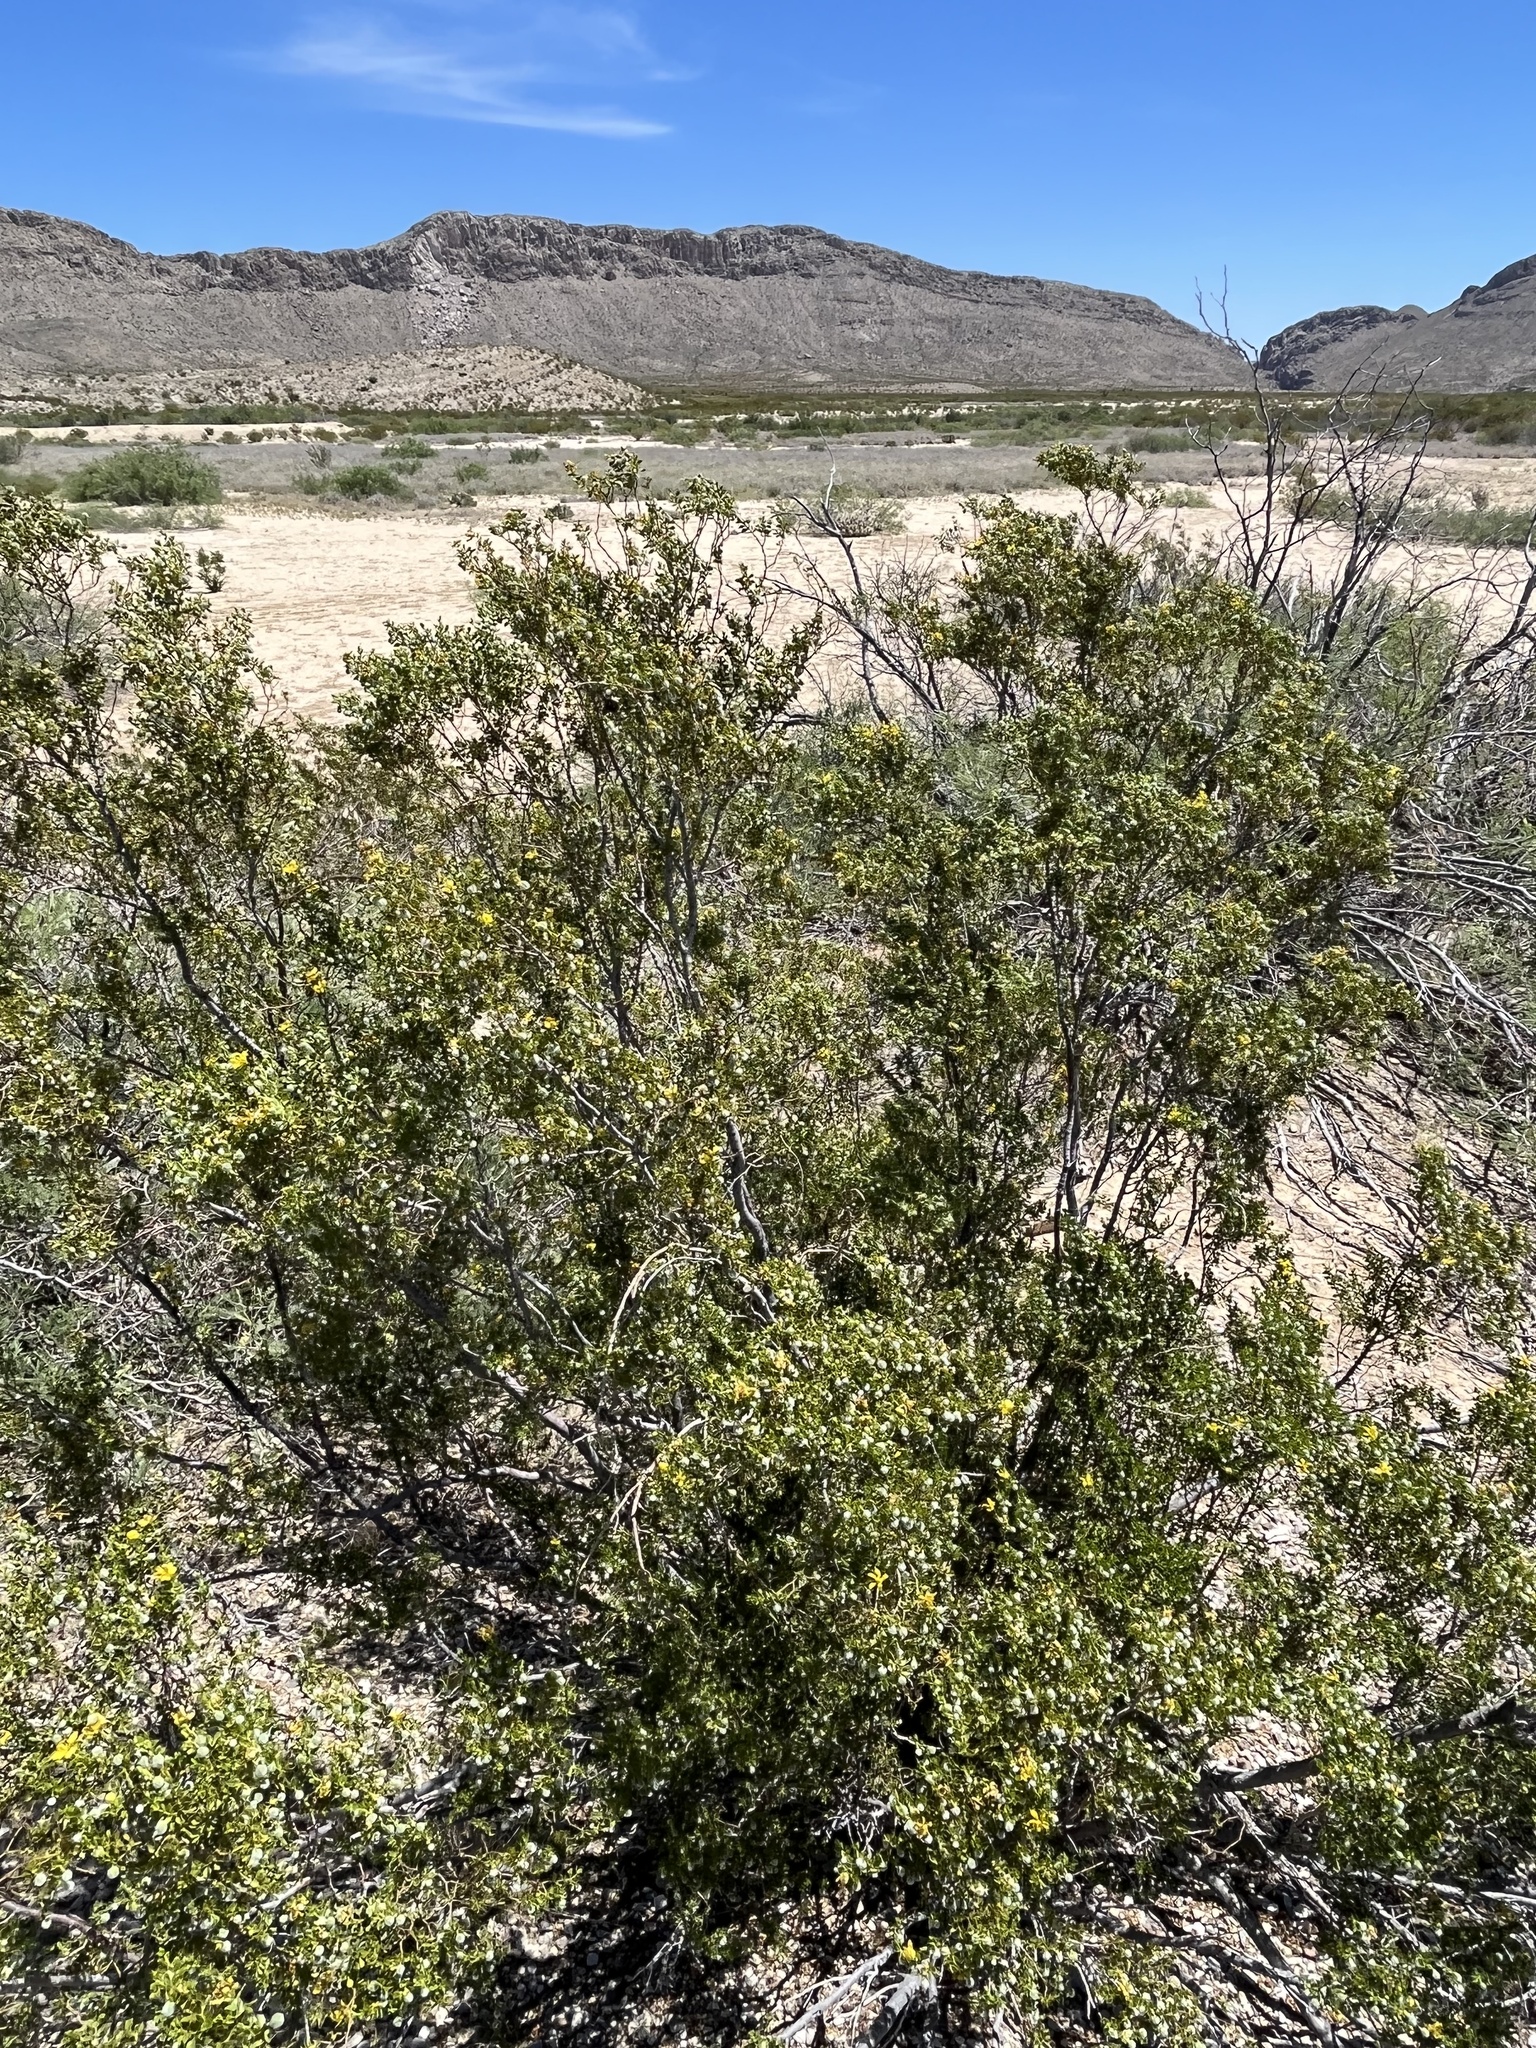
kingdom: Plantae
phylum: Tracheophyta
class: Magnoliopsida
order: Zygophyllales
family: Zygophyllaceae
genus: Larrea
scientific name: Larrea tridentata
